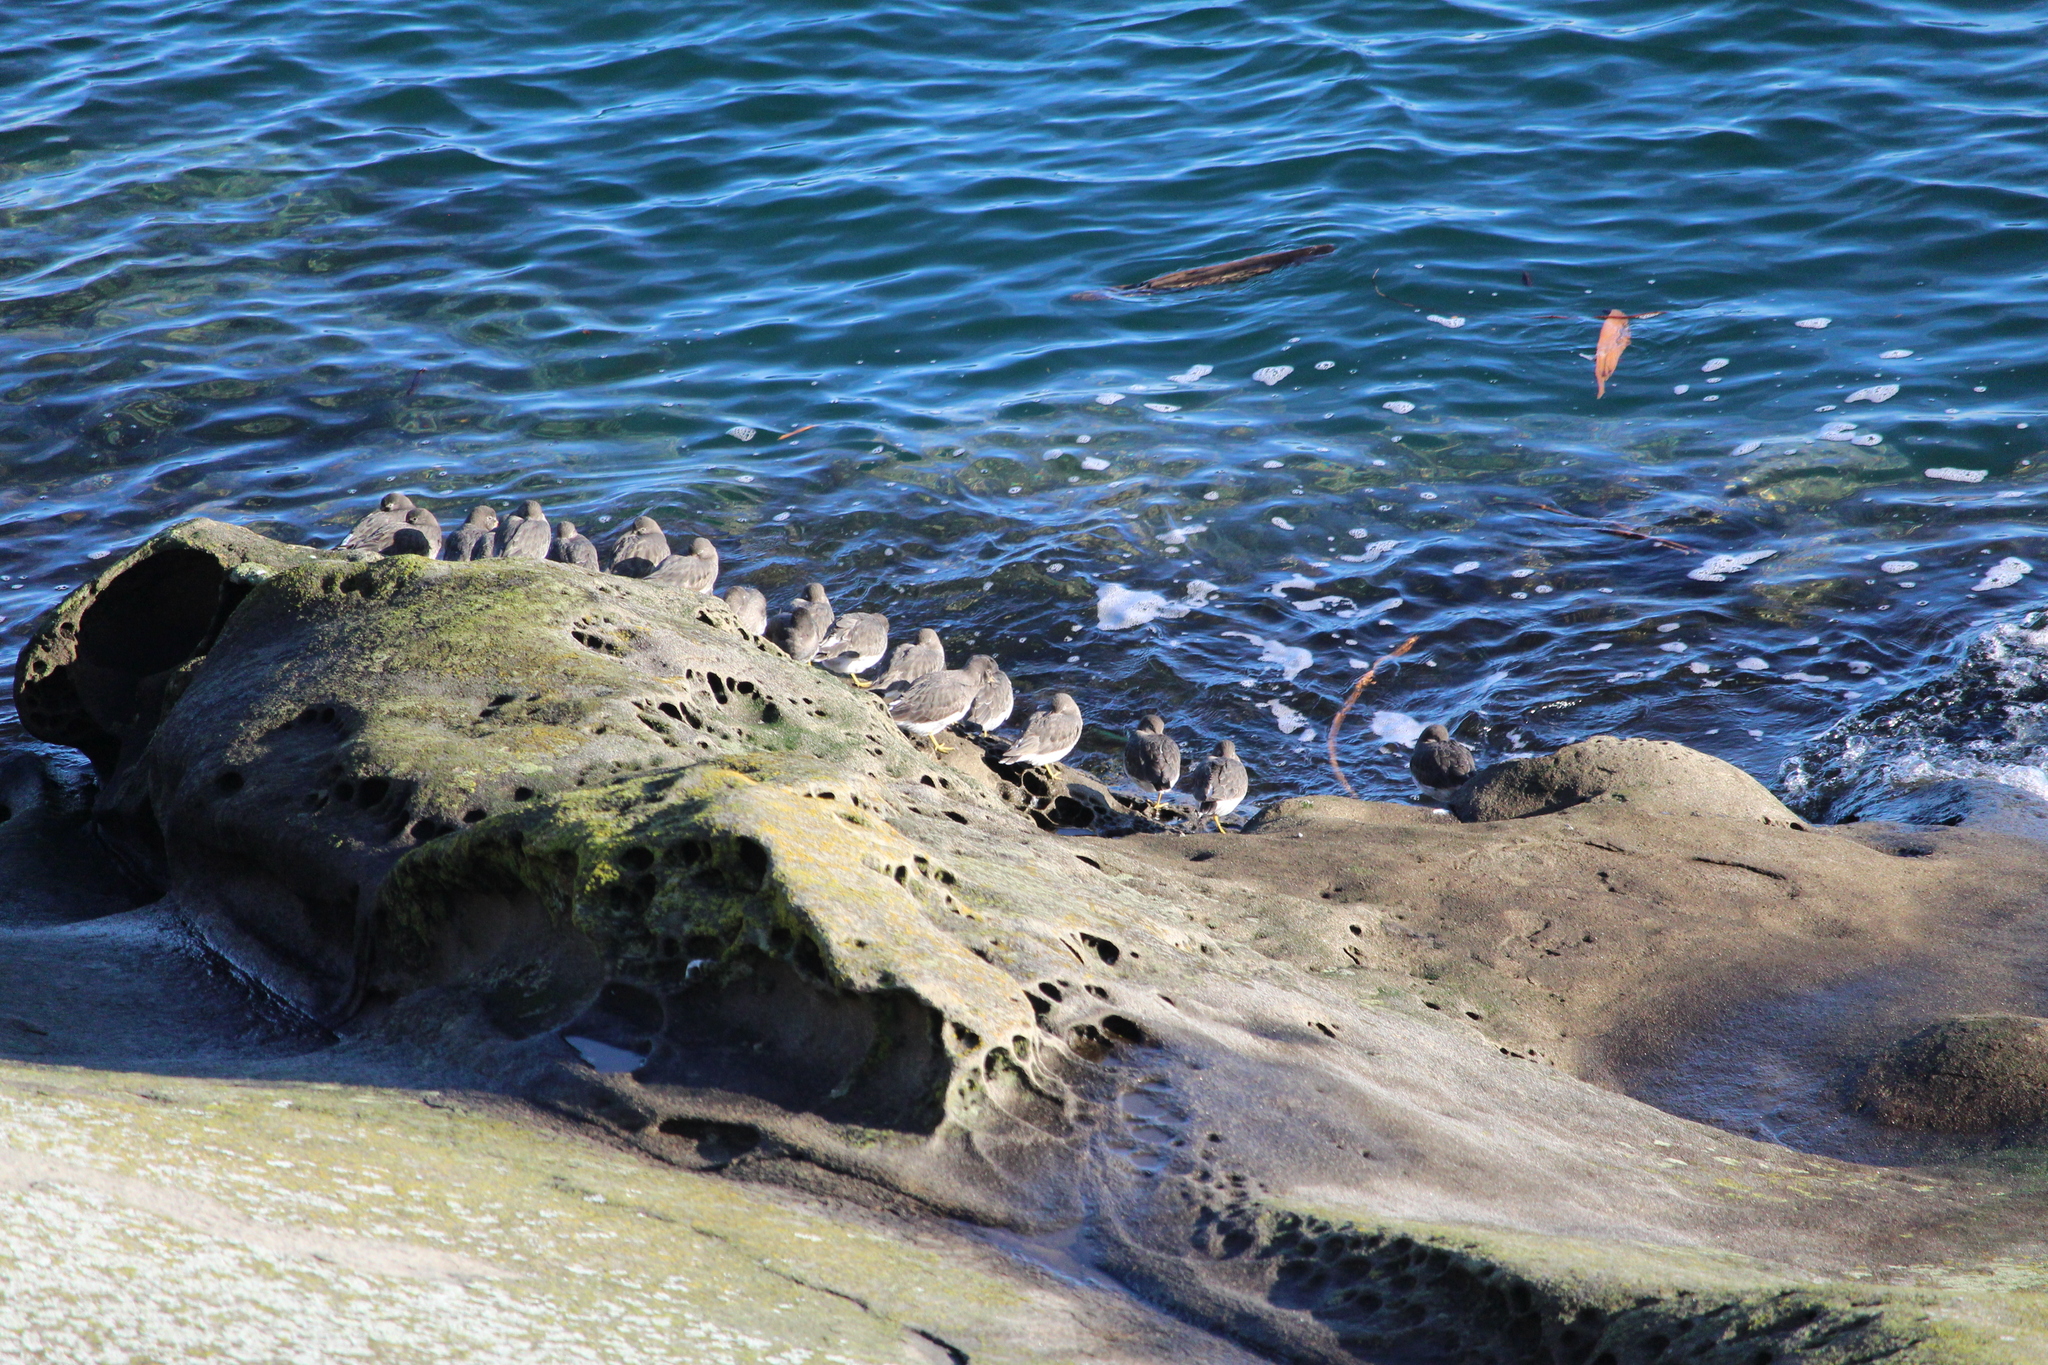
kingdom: Animalia
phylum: Chordata
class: Aves
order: Charadriiformes
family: Scolopacidae
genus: Calidris
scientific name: Calidris virgata
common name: Surfbird
